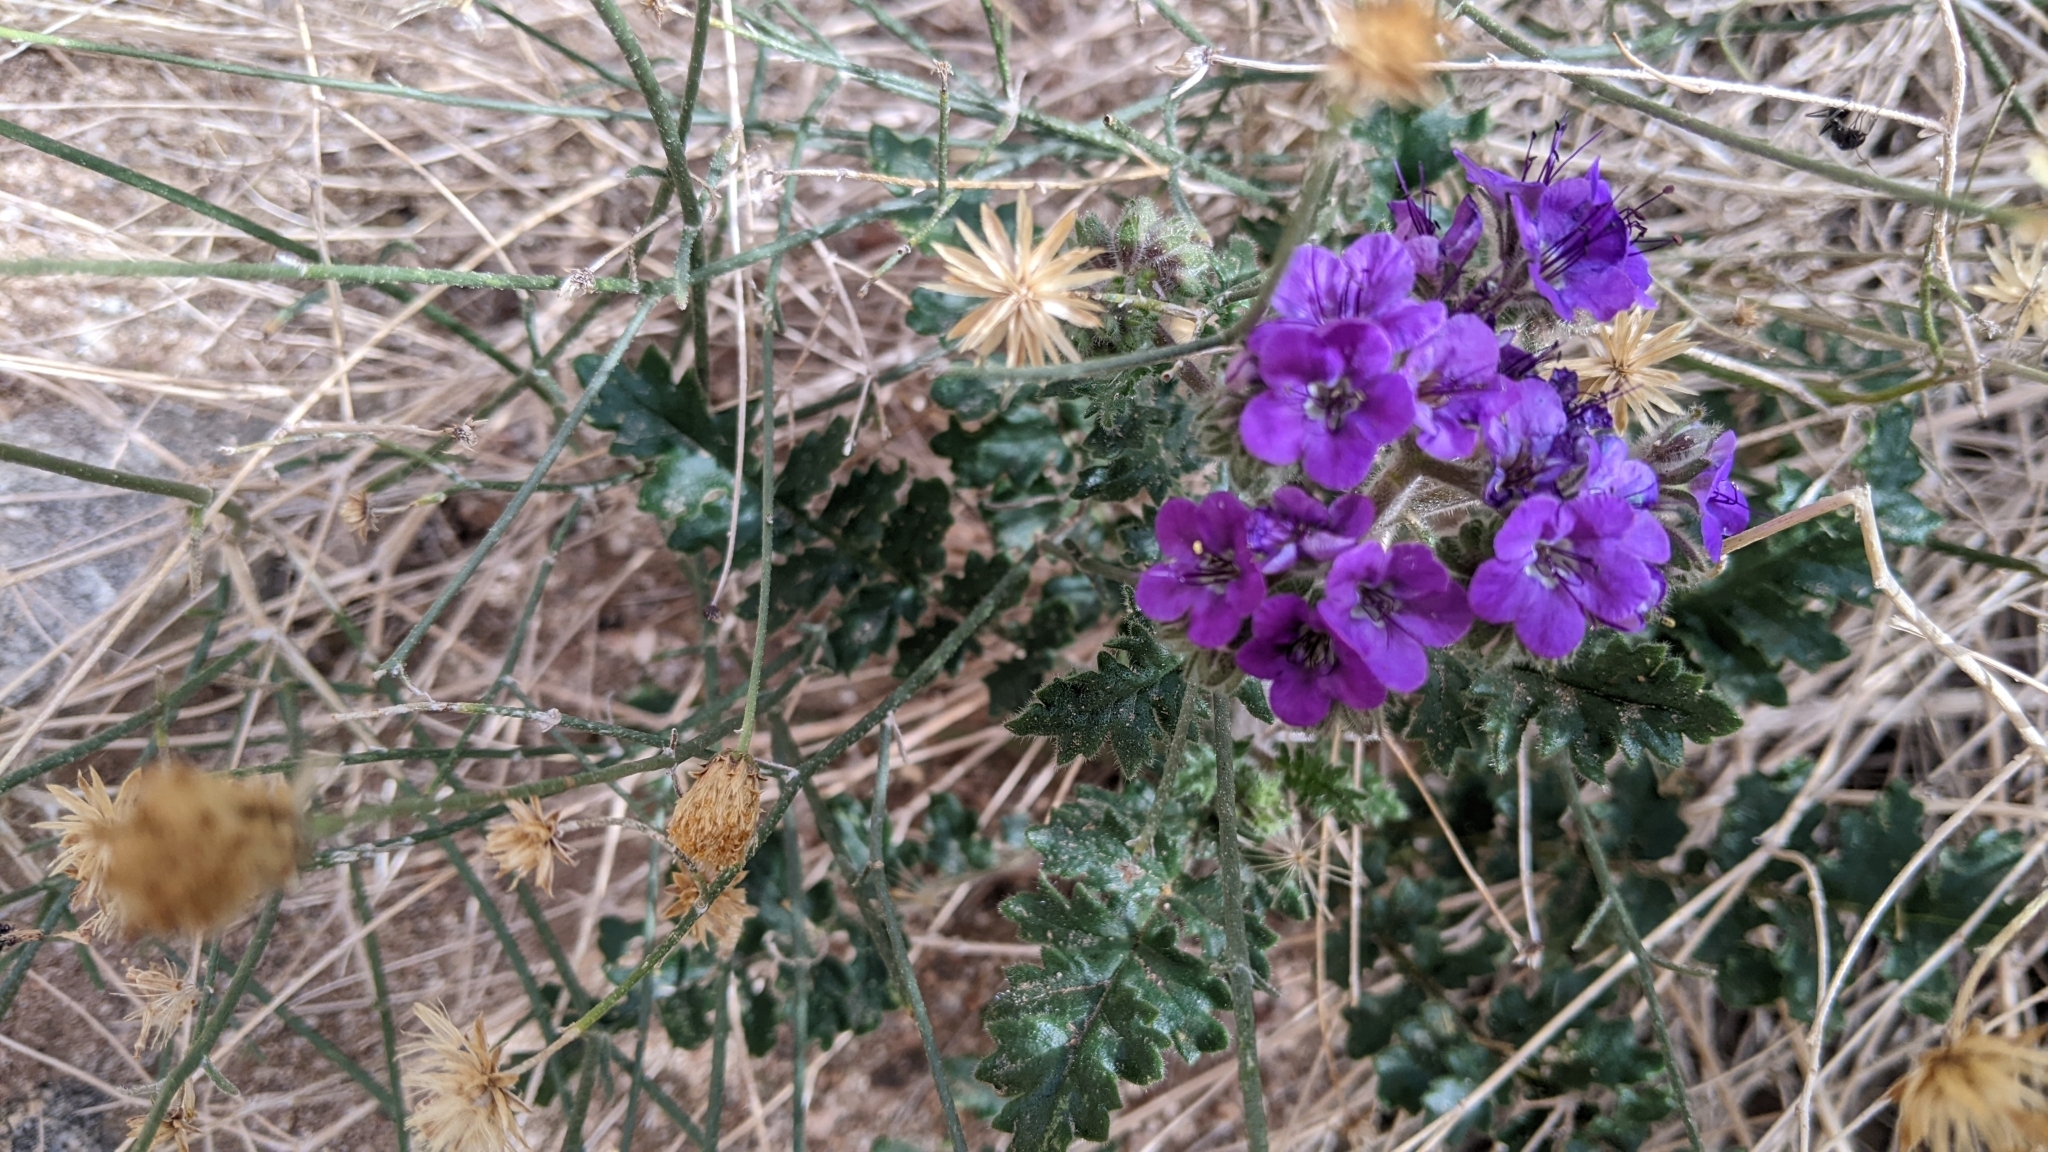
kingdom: Plantae
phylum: Tracheophyta
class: Magnoliopsida
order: Boraginales
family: Hydrophyllaceae
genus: Phacelia
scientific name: Phacelia crenulata
